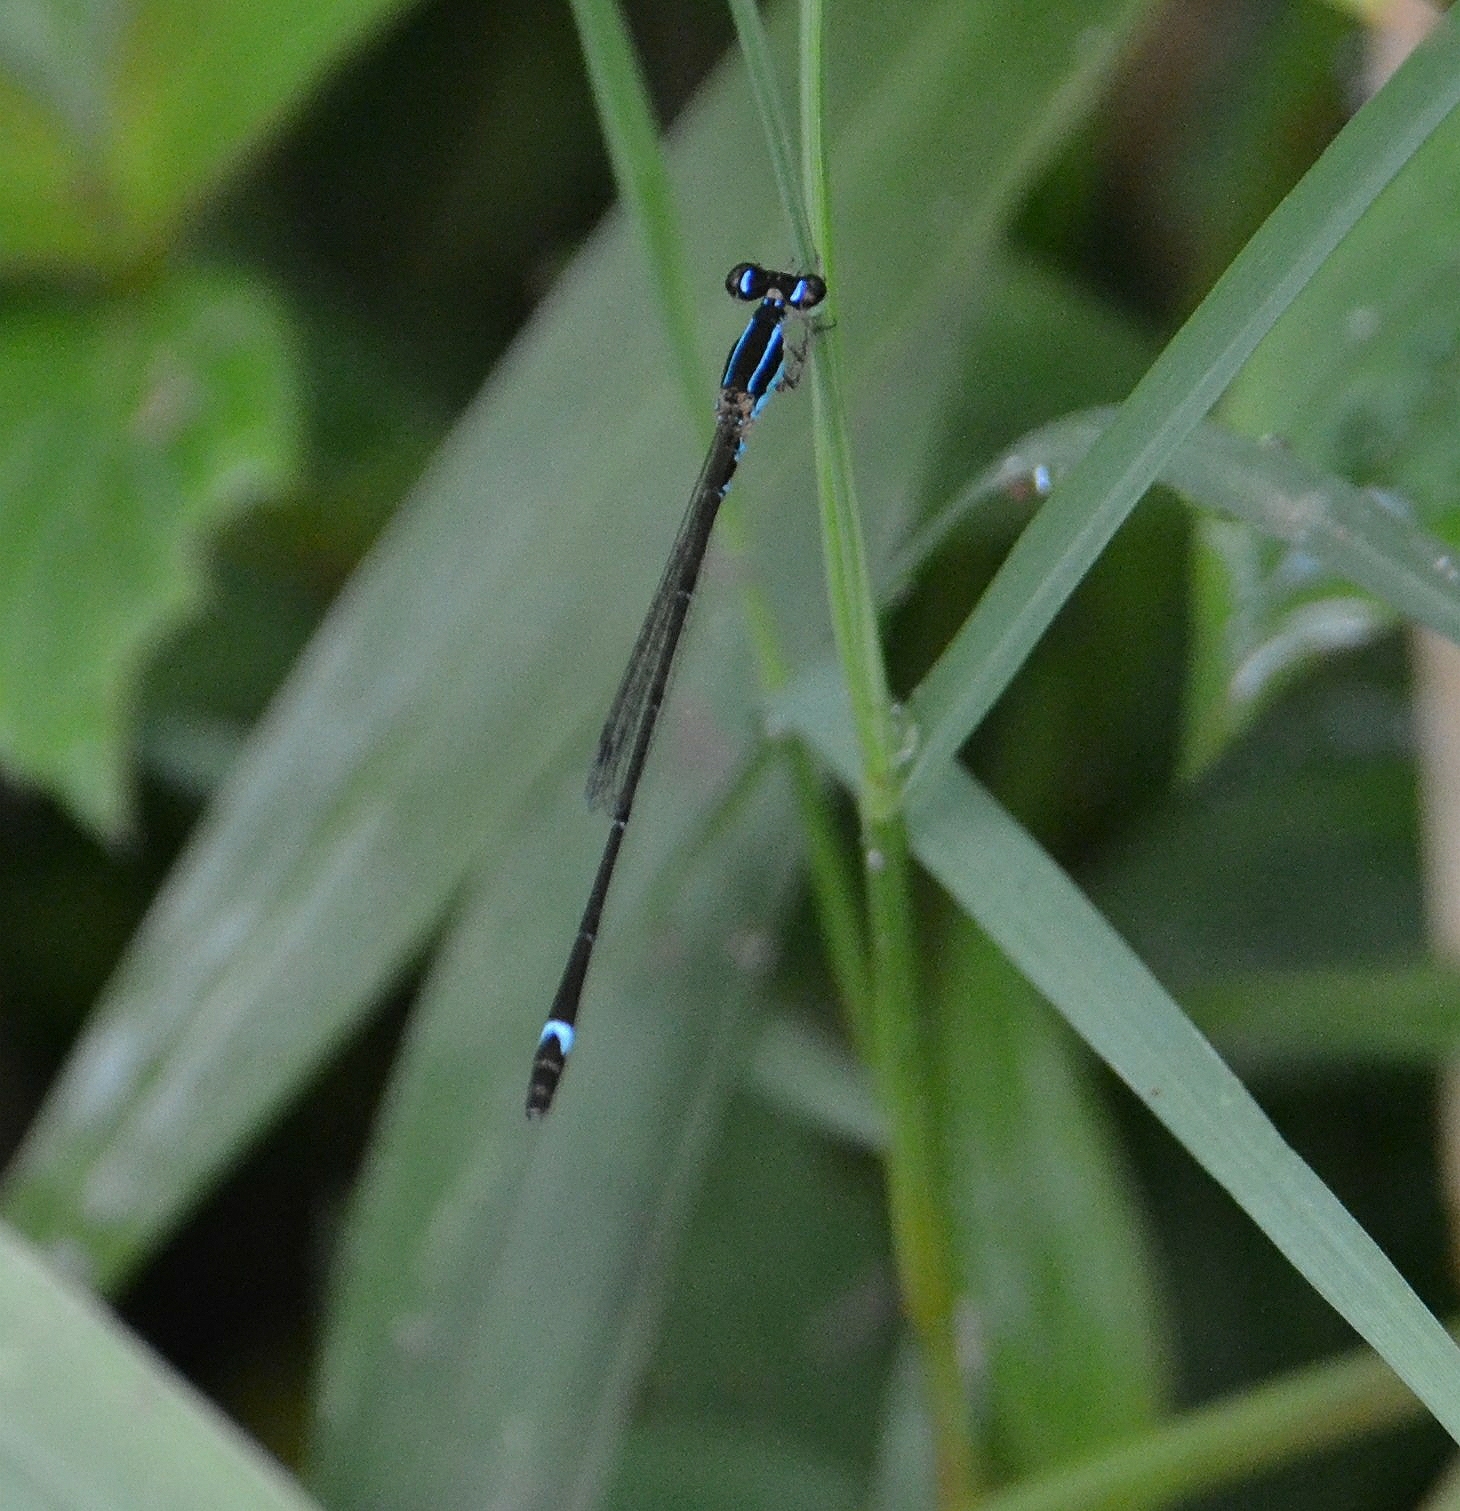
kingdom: Animalia
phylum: Arthropoda
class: Insecta
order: Odonata
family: Coenagrionidae
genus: Mortonagrion
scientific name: Mortonagrion varralli
